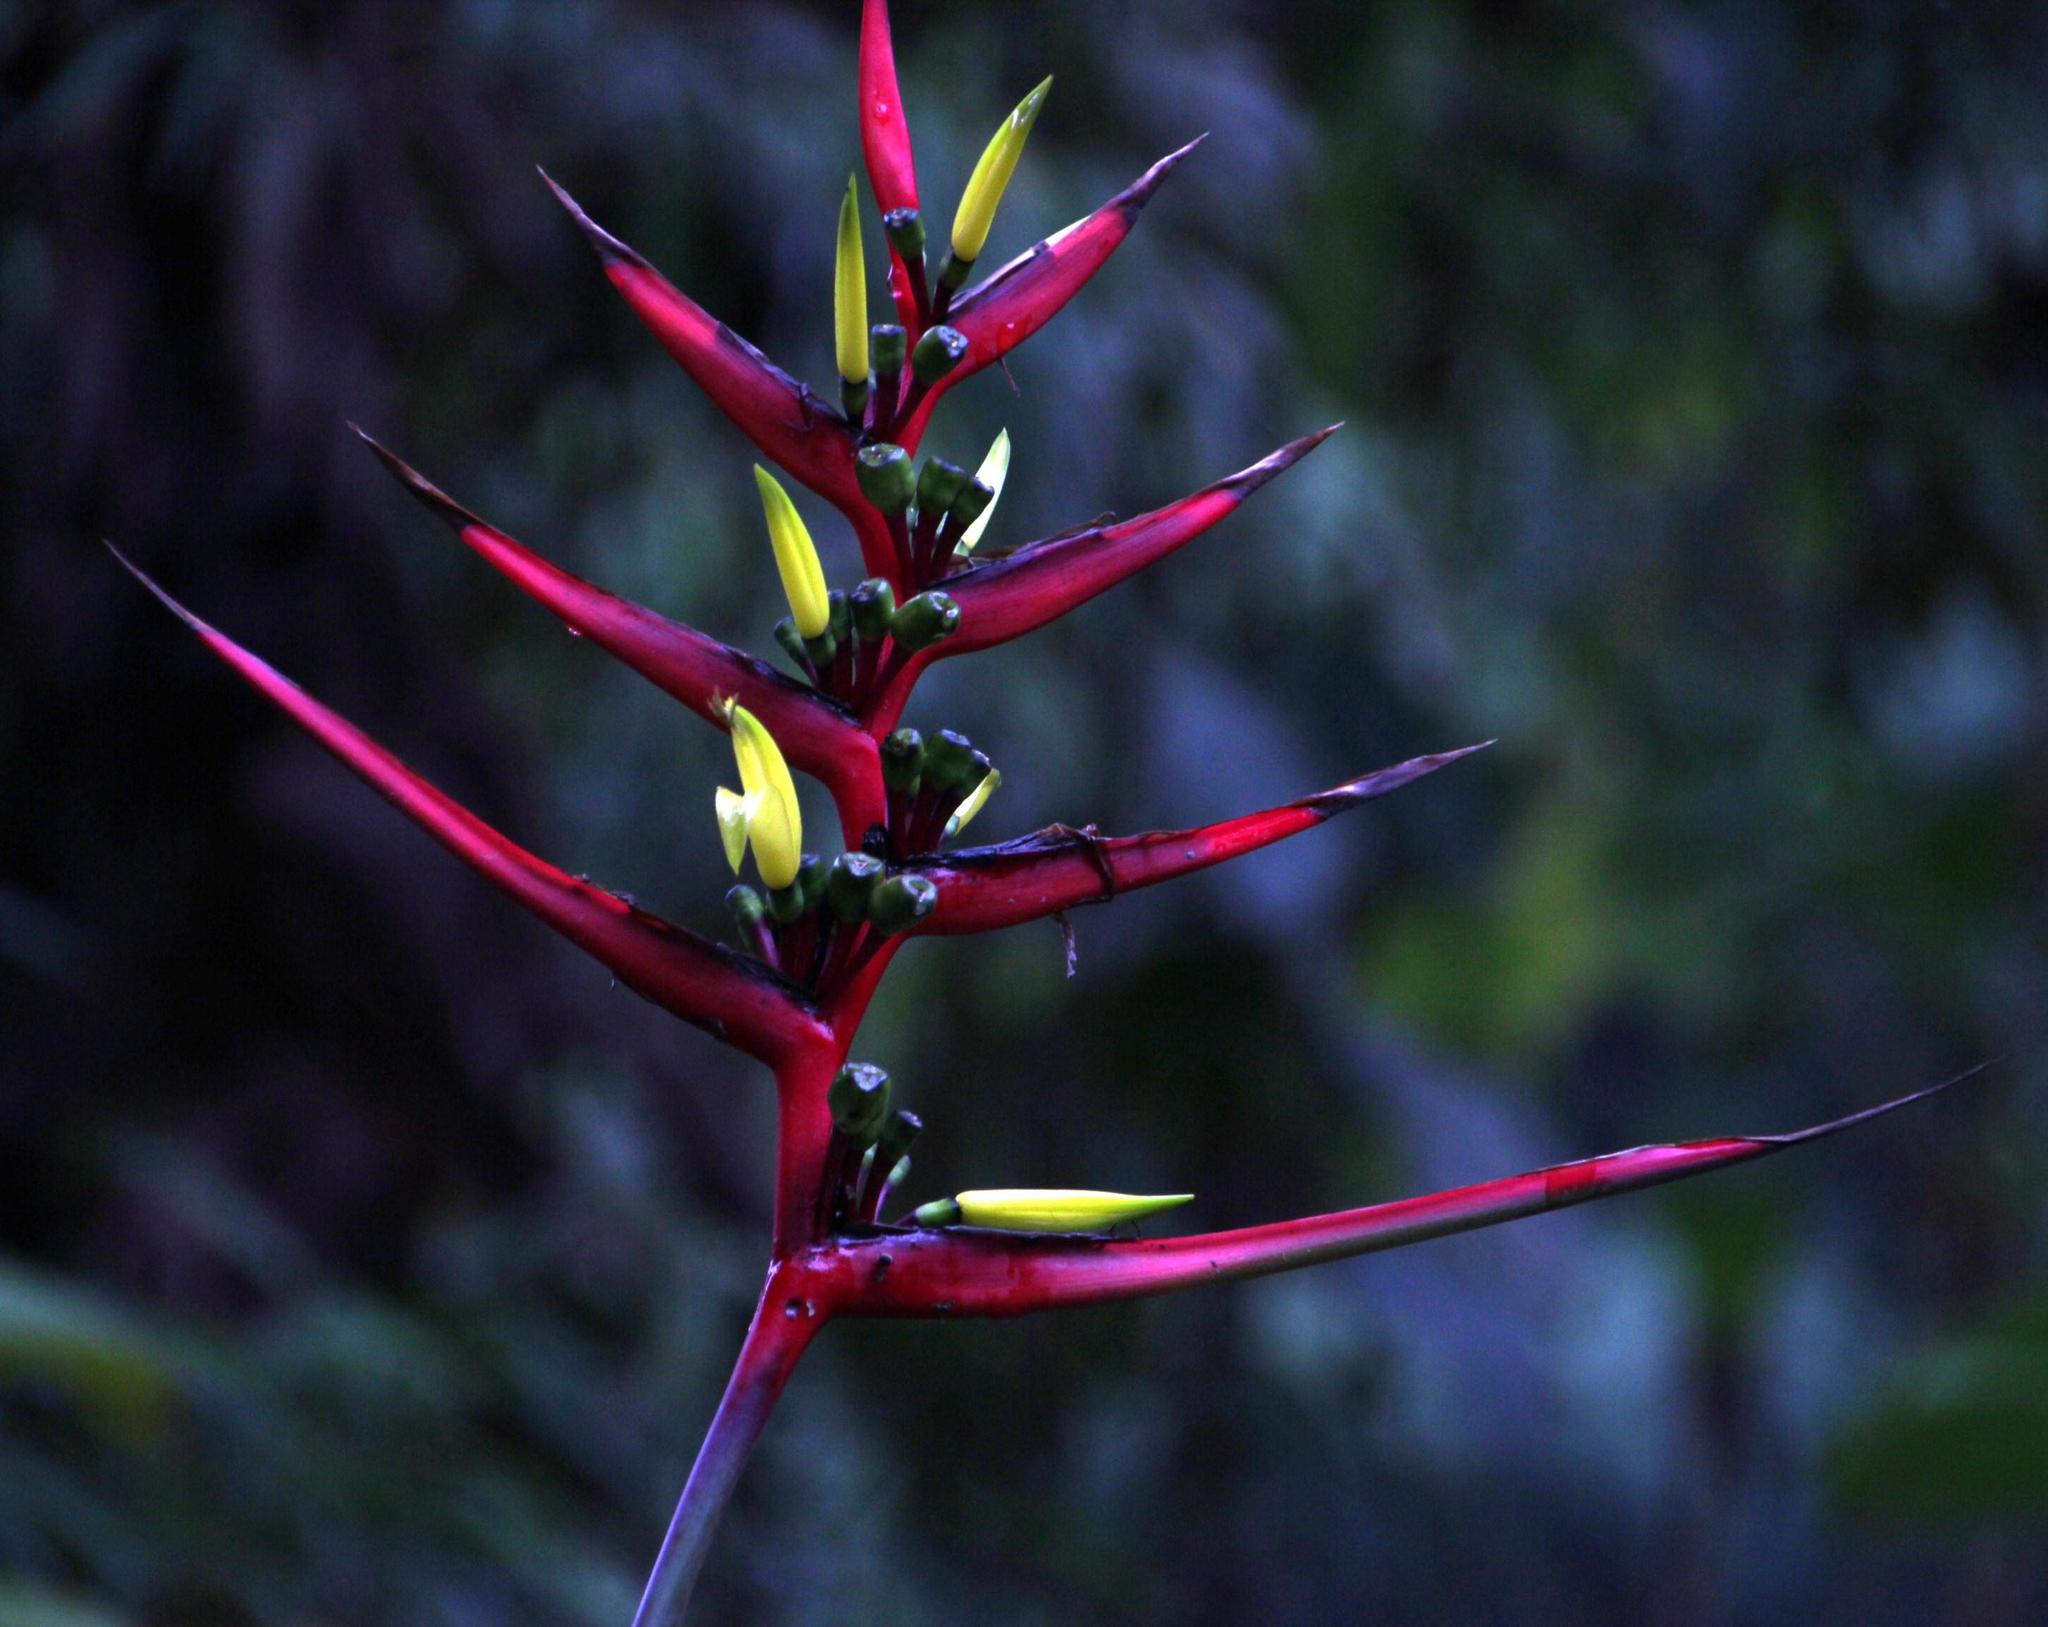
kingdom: Plantae
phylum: Tracheophyta
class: Liliopsida
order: Zingiberales
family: Heliconiaceae
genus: Heliconia
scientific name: Heliconia subulata
